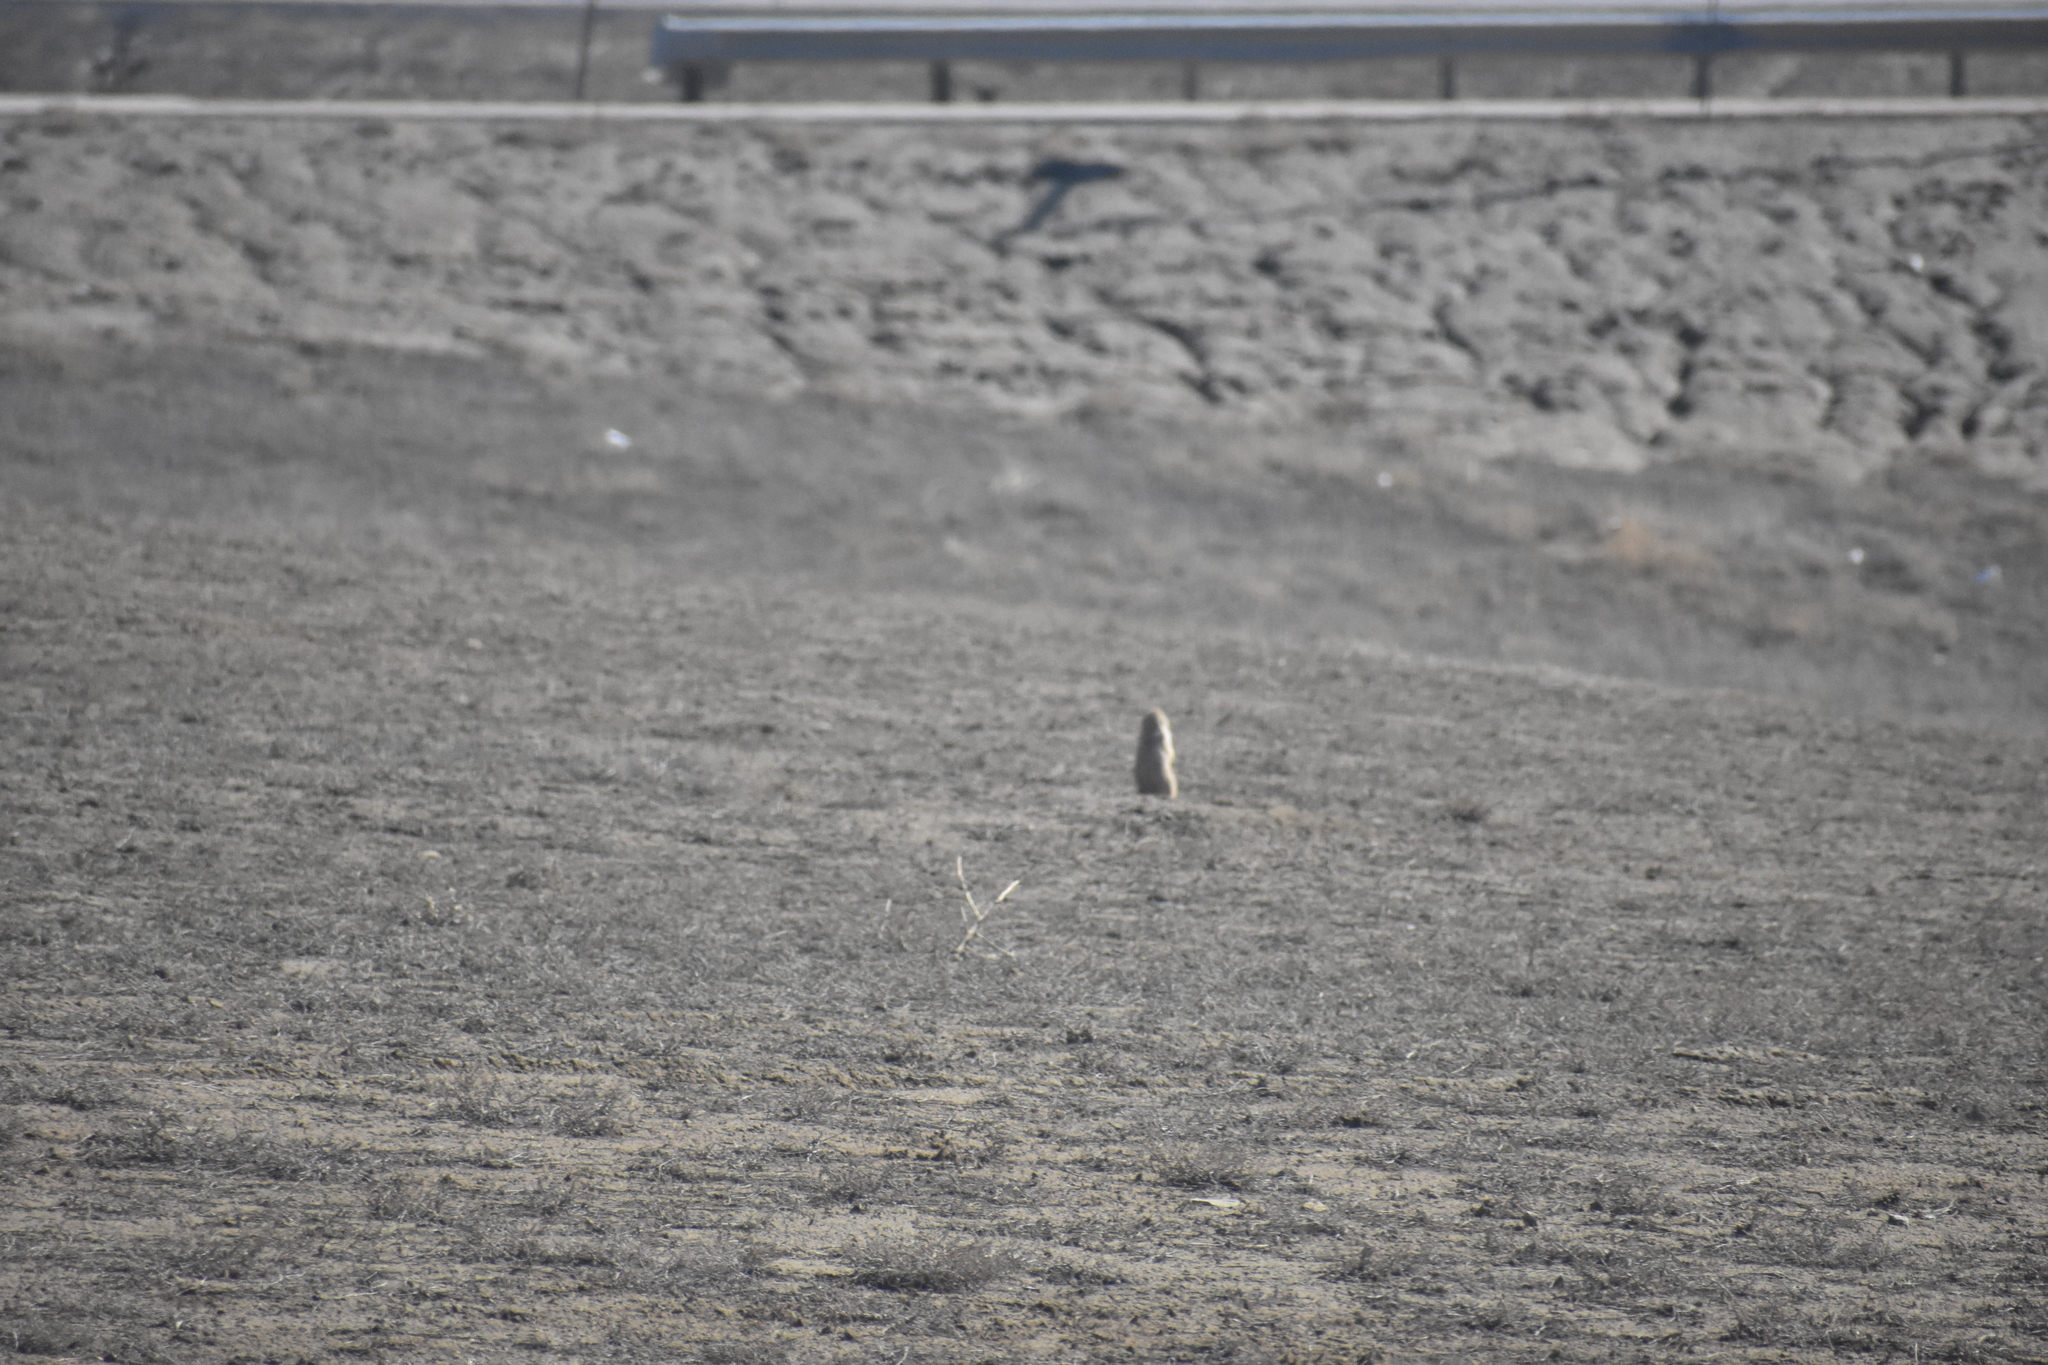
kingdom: Animalia
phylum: Chordata
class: Mammalia
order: Rodentia
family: Sciuridae
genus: Cynomys
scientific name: Cynomys ludovicianus
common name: Black-tailed prairie dog
